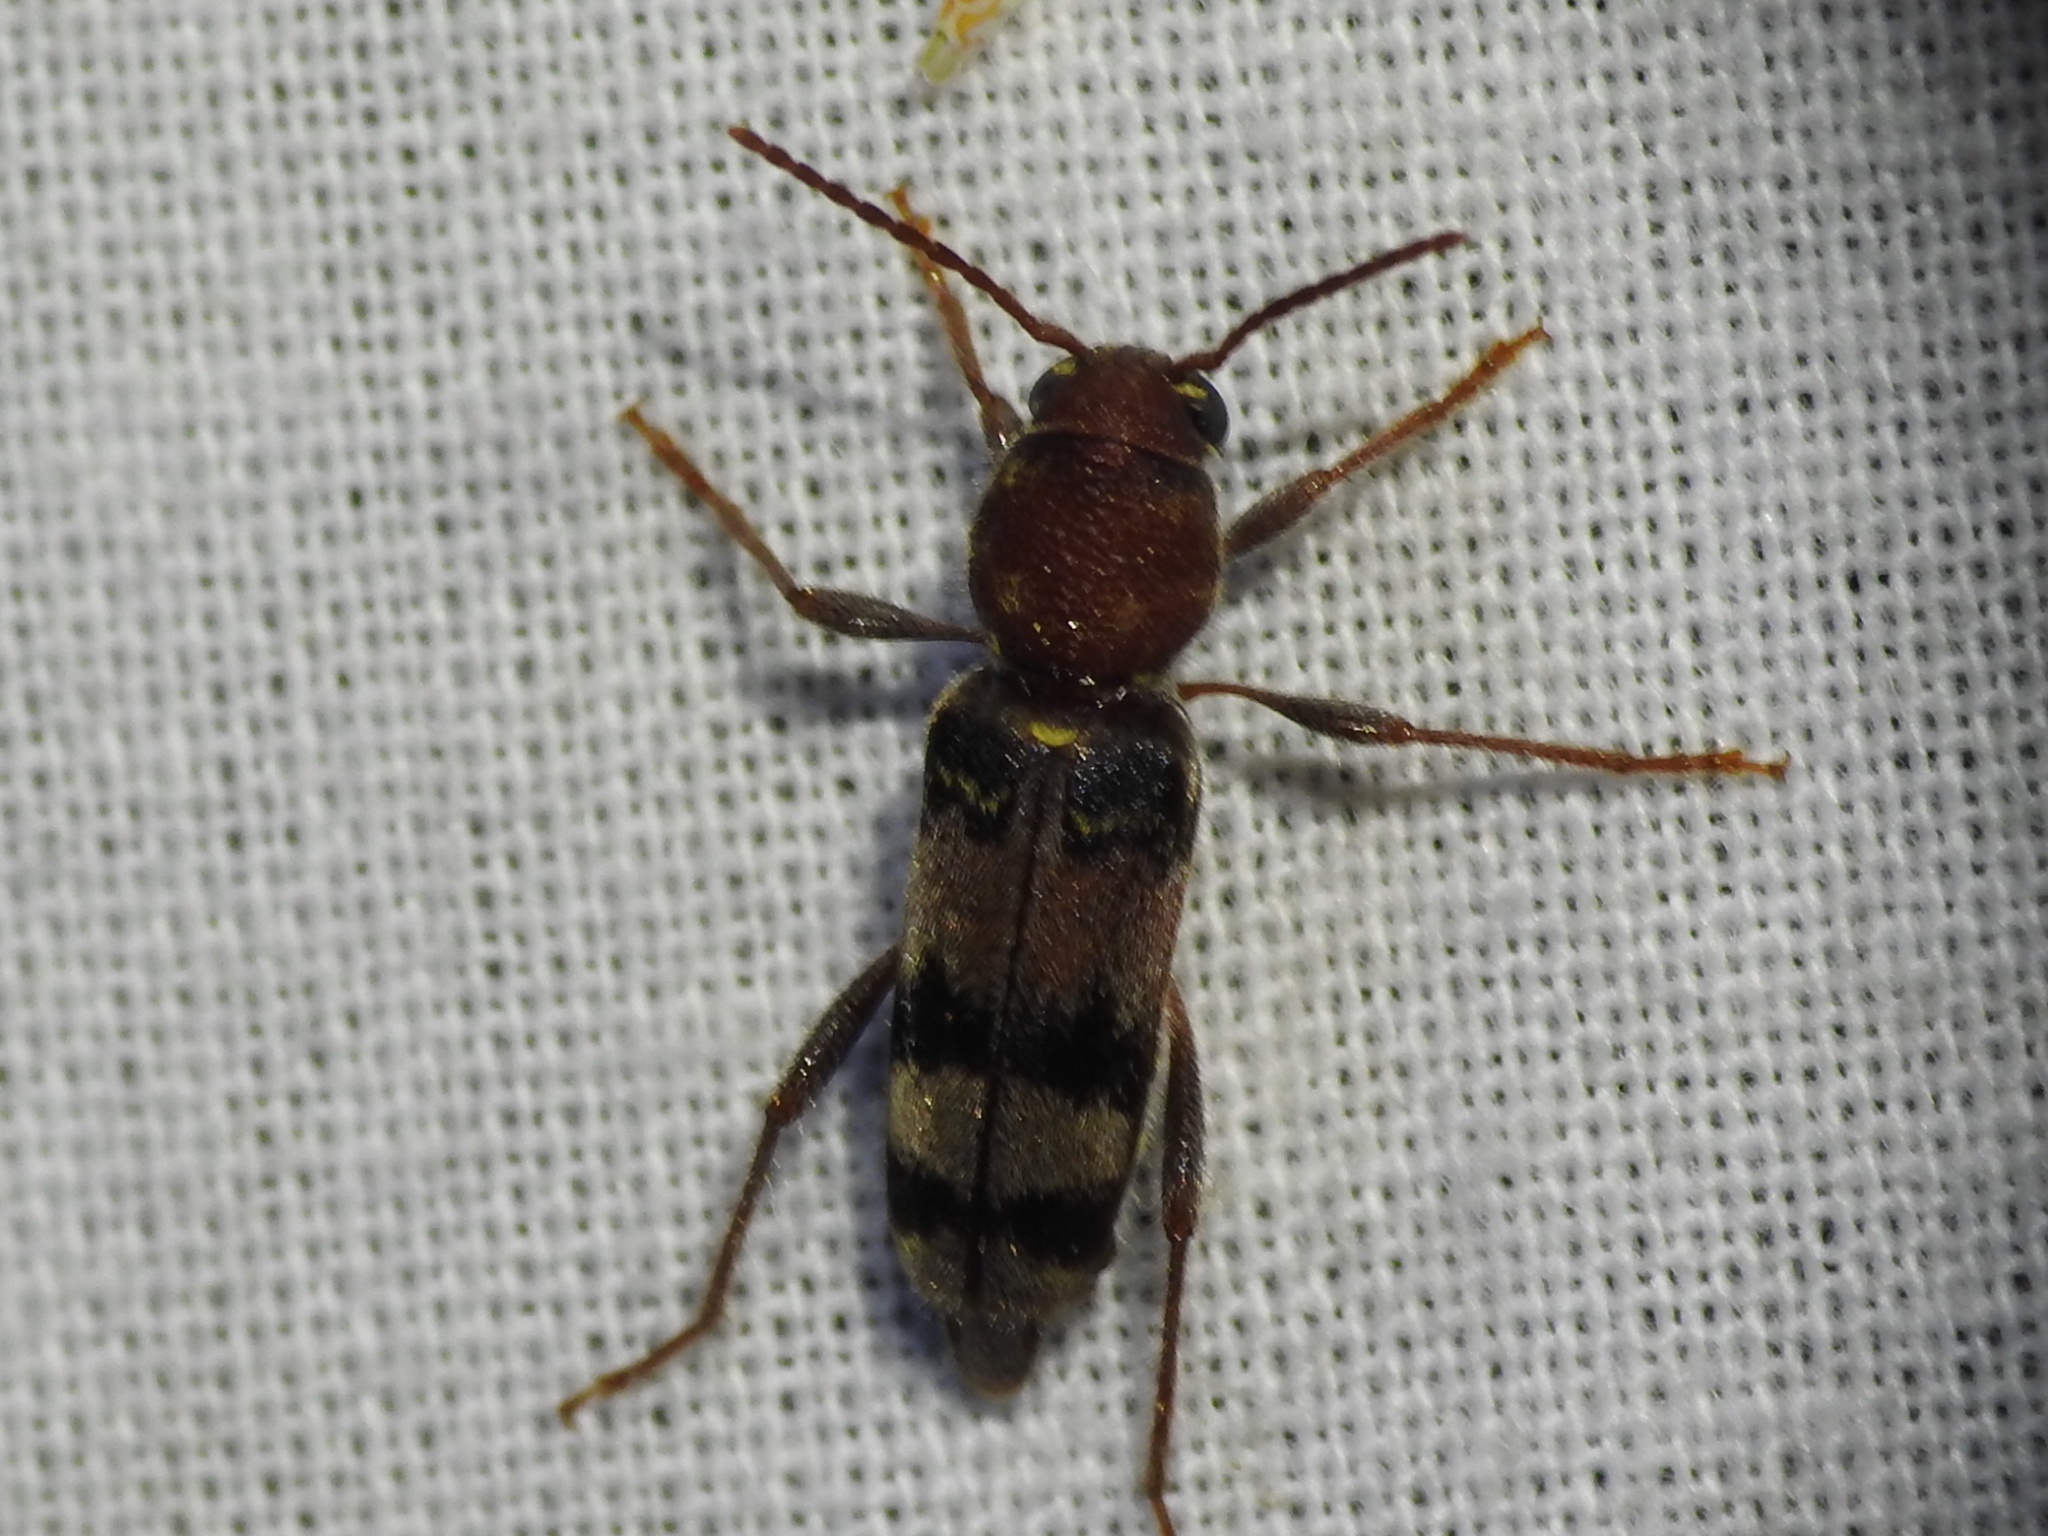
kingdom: Animalia
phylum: Arthropoda
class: Insecta
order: Coleoptera
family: Cerambycidae
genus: Xylotrechus
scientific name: Xylotrechus colonus
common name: Long-horned beetle
